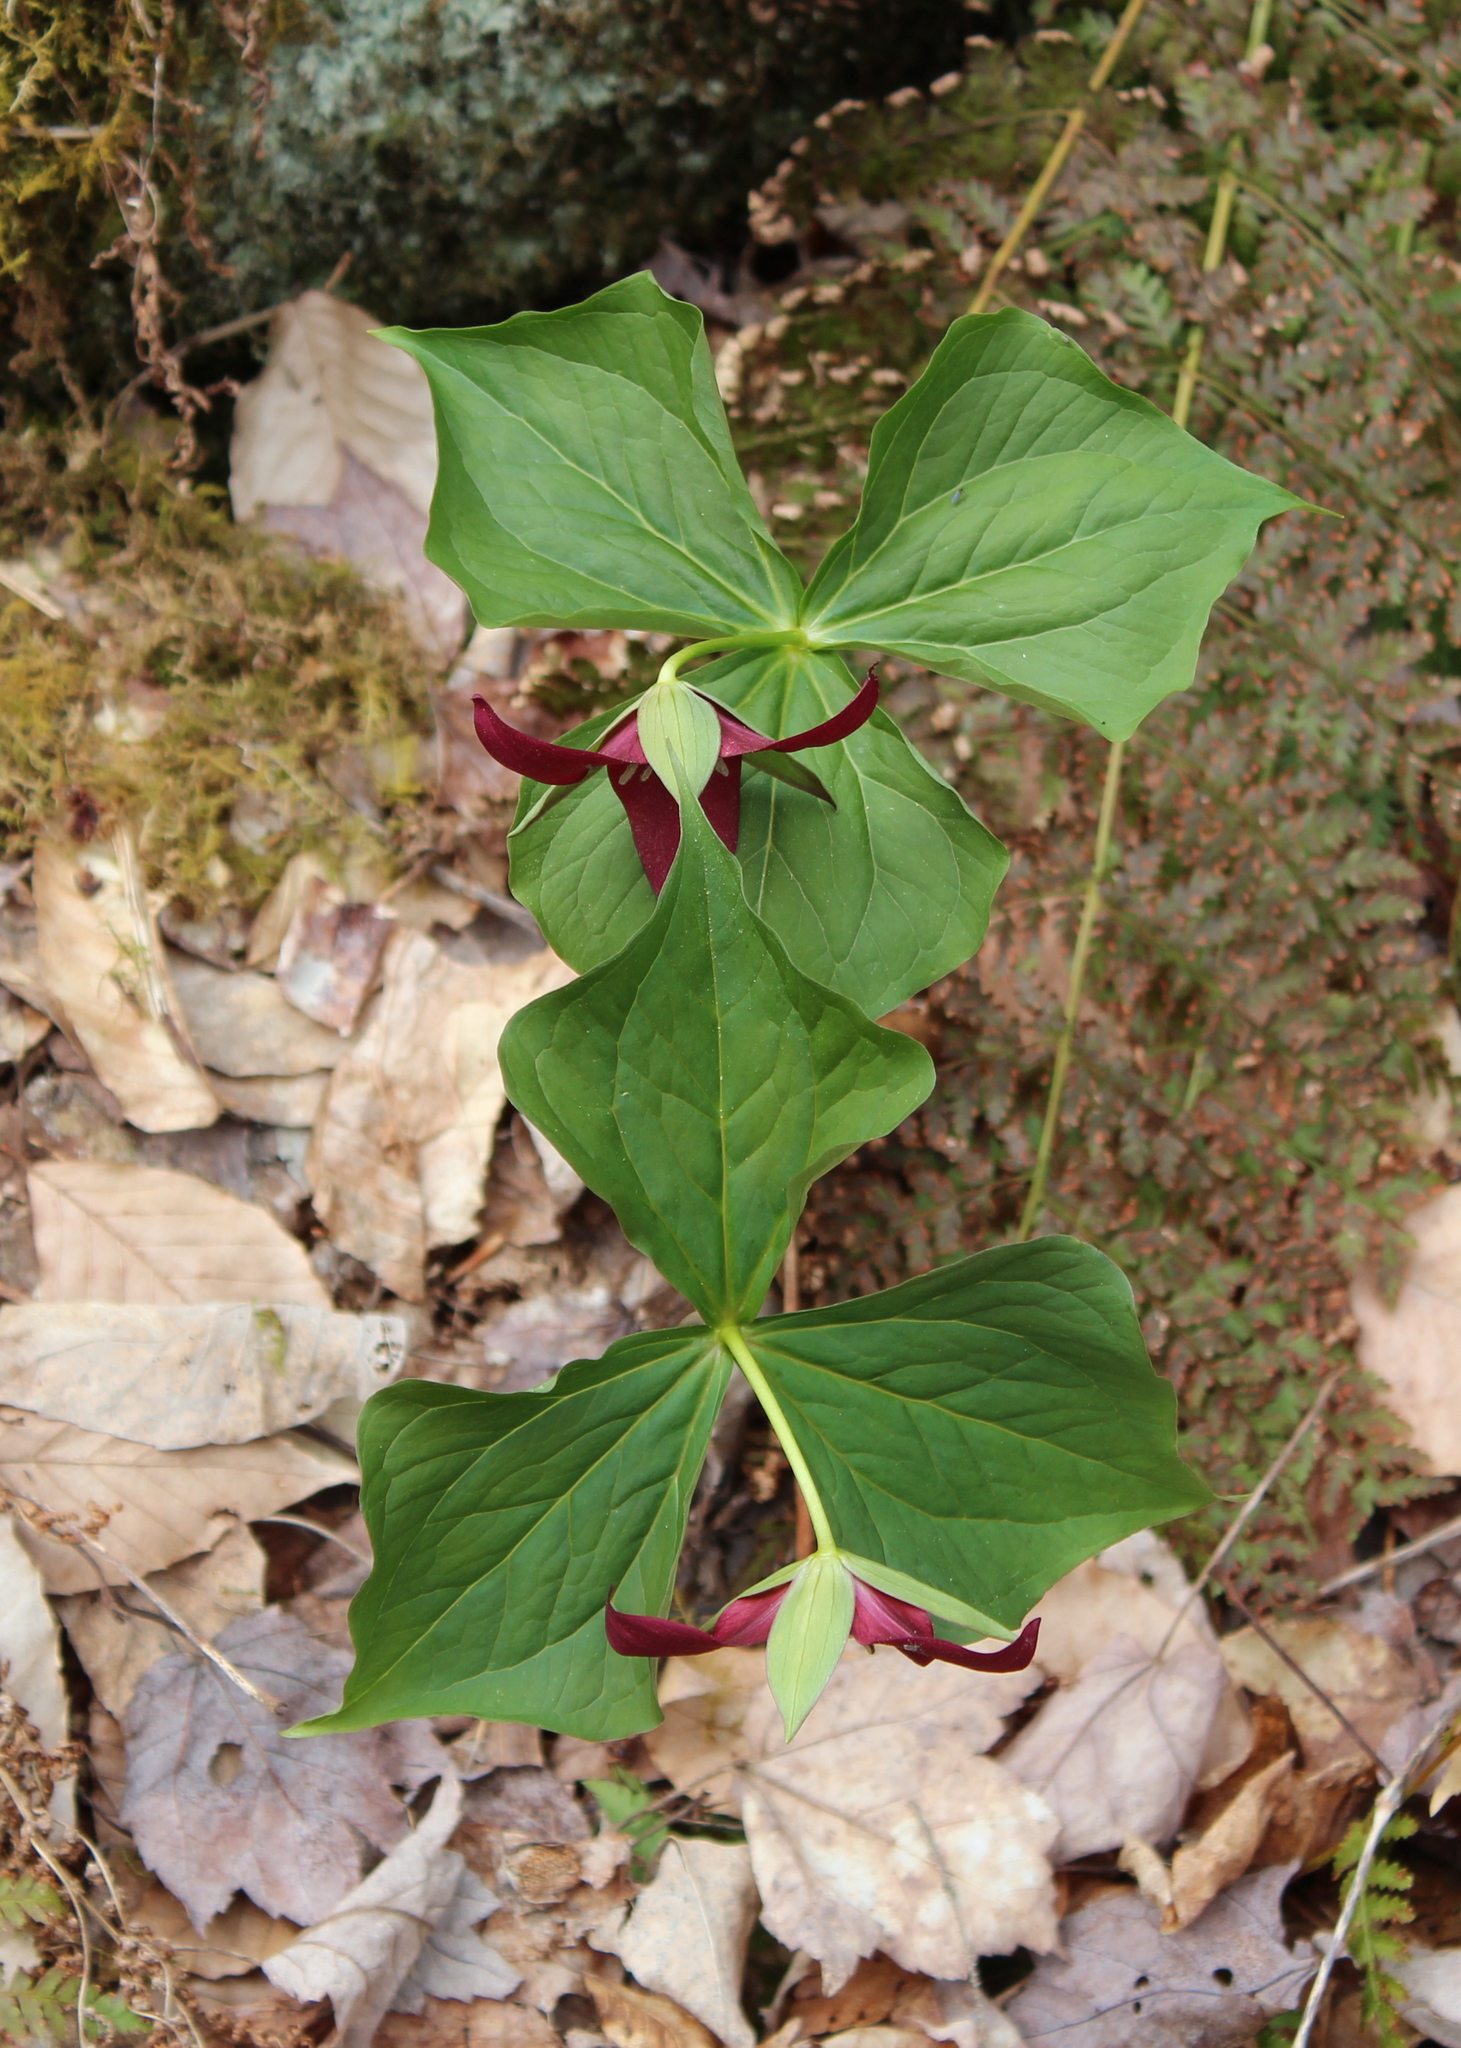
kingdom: Plantae
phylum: Tracheophyta
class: Liliopsida
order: Liliales
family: Melanthiaceae
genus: Trillium
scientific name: Trillium erectum
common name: Purple trillium
